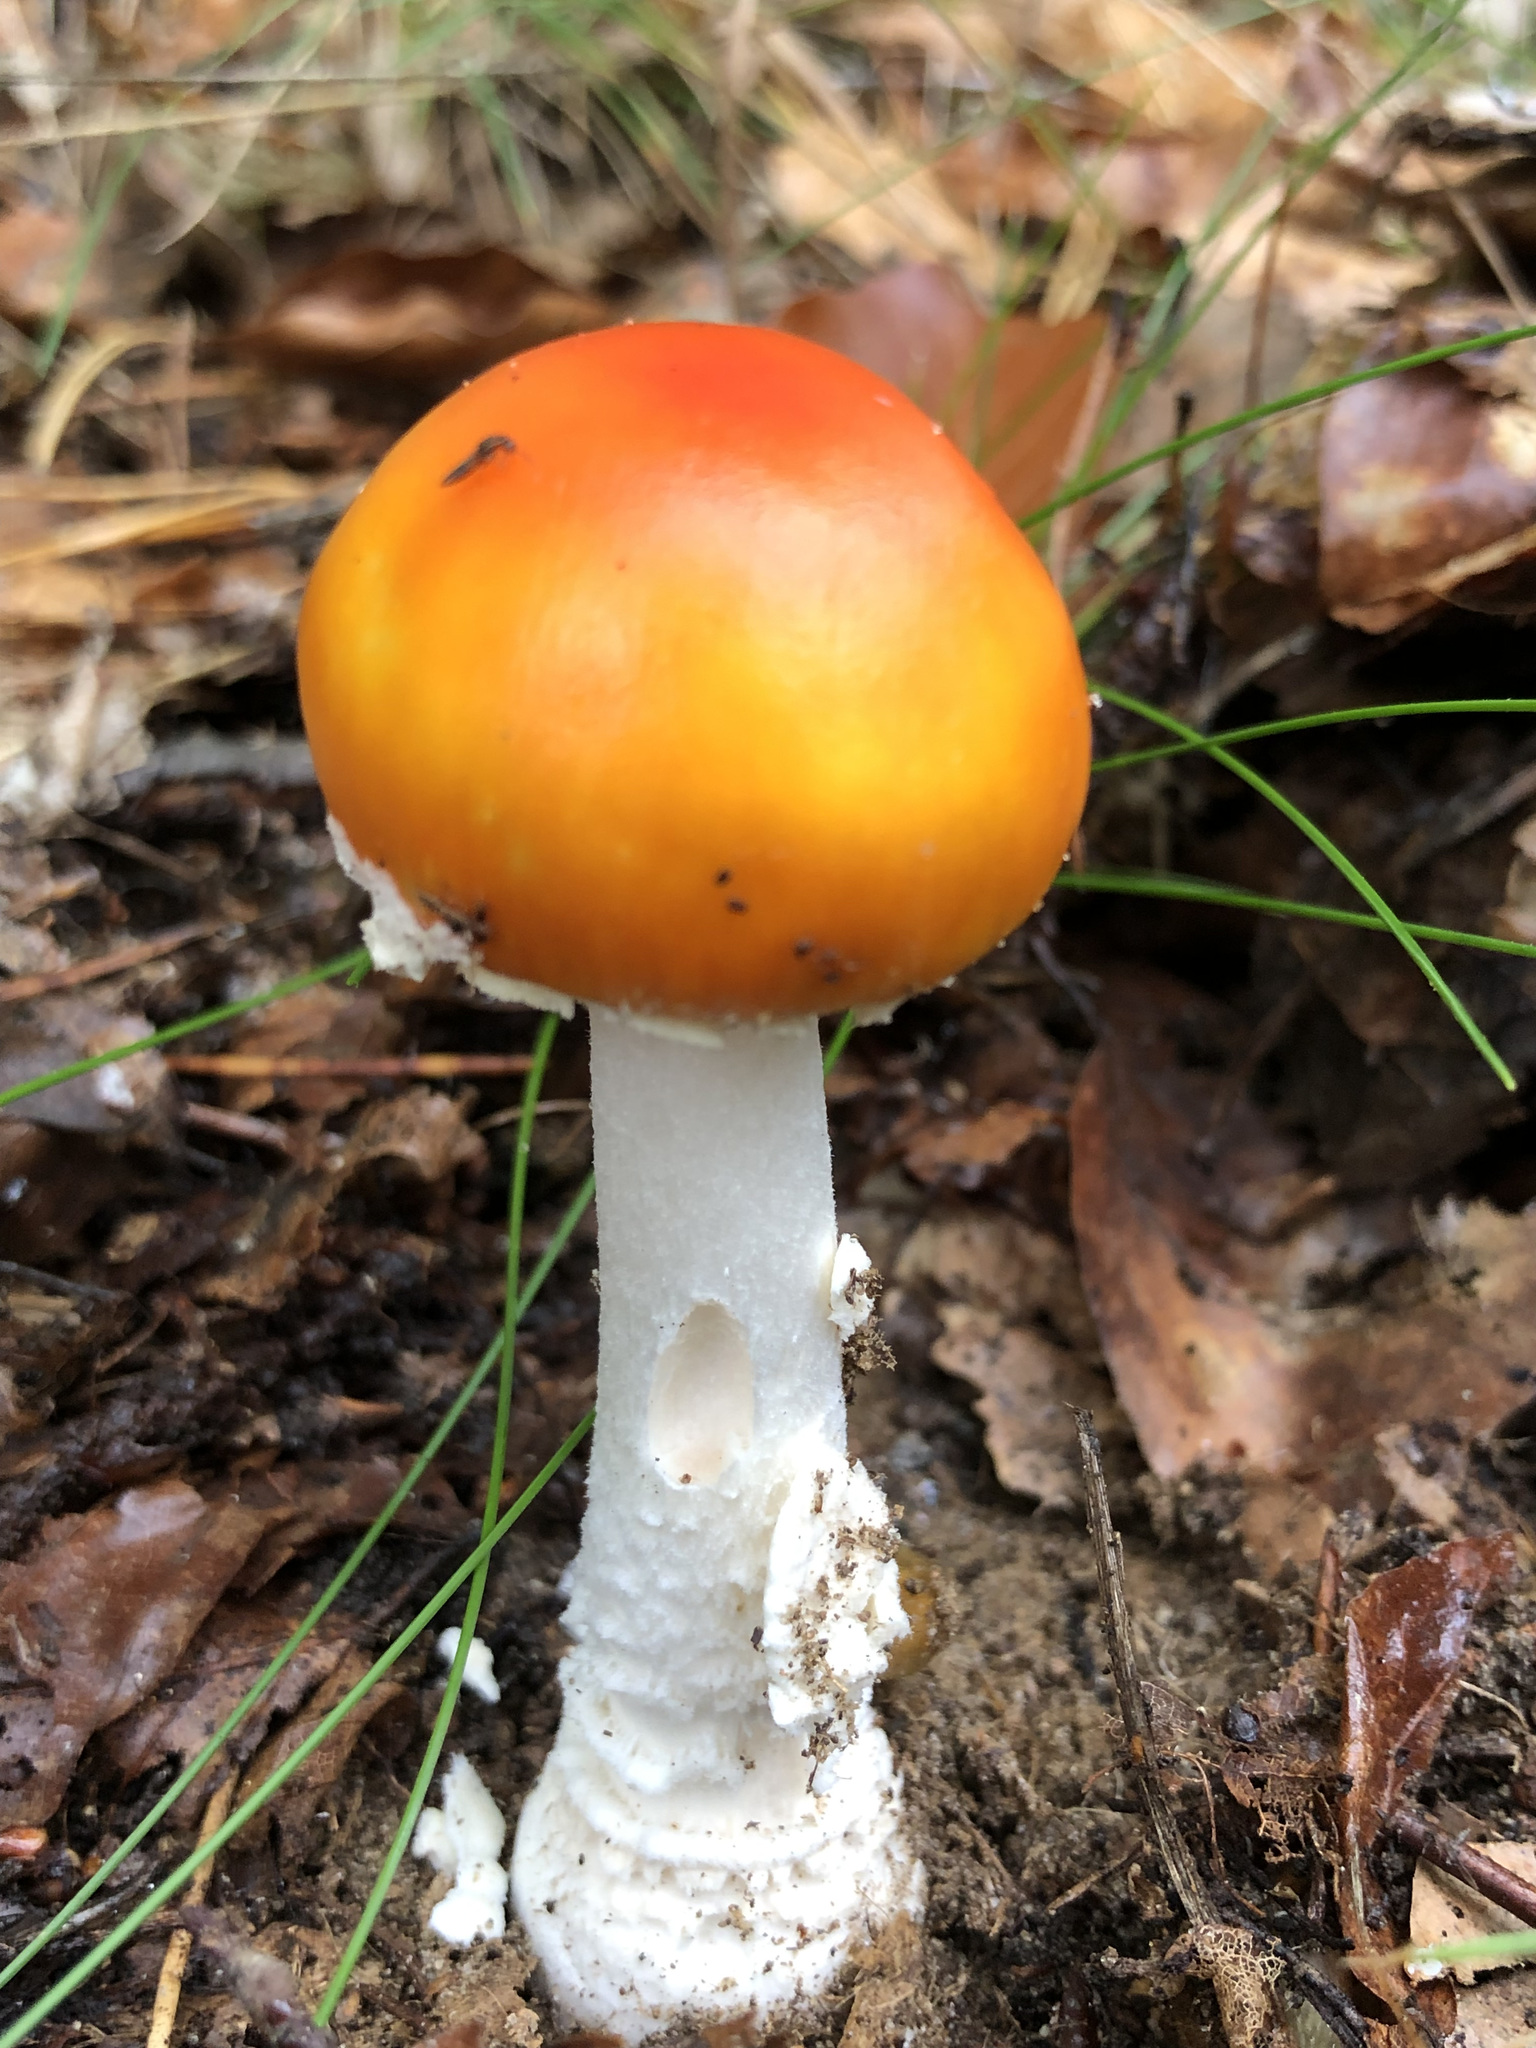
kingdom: Fungi
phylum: Basidiomycota
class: Agaricomycetes
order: Agaricales
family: Amanitaceae
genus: Amanita
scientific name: Amanita muscaria
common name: Fly agaric
